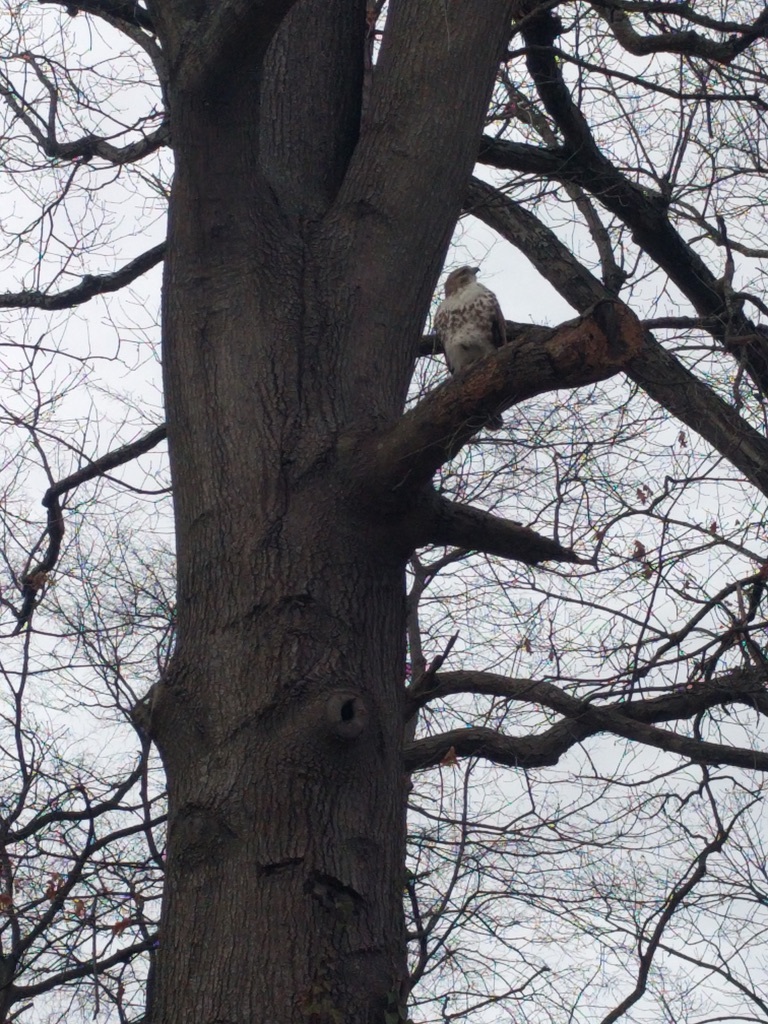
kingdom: Animalia
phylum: Chordata
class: Aves
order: Accipitriformes
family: Accipitridae
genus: Buteo
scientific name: Buteo jamaicensis
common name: Red-tailed hawk
